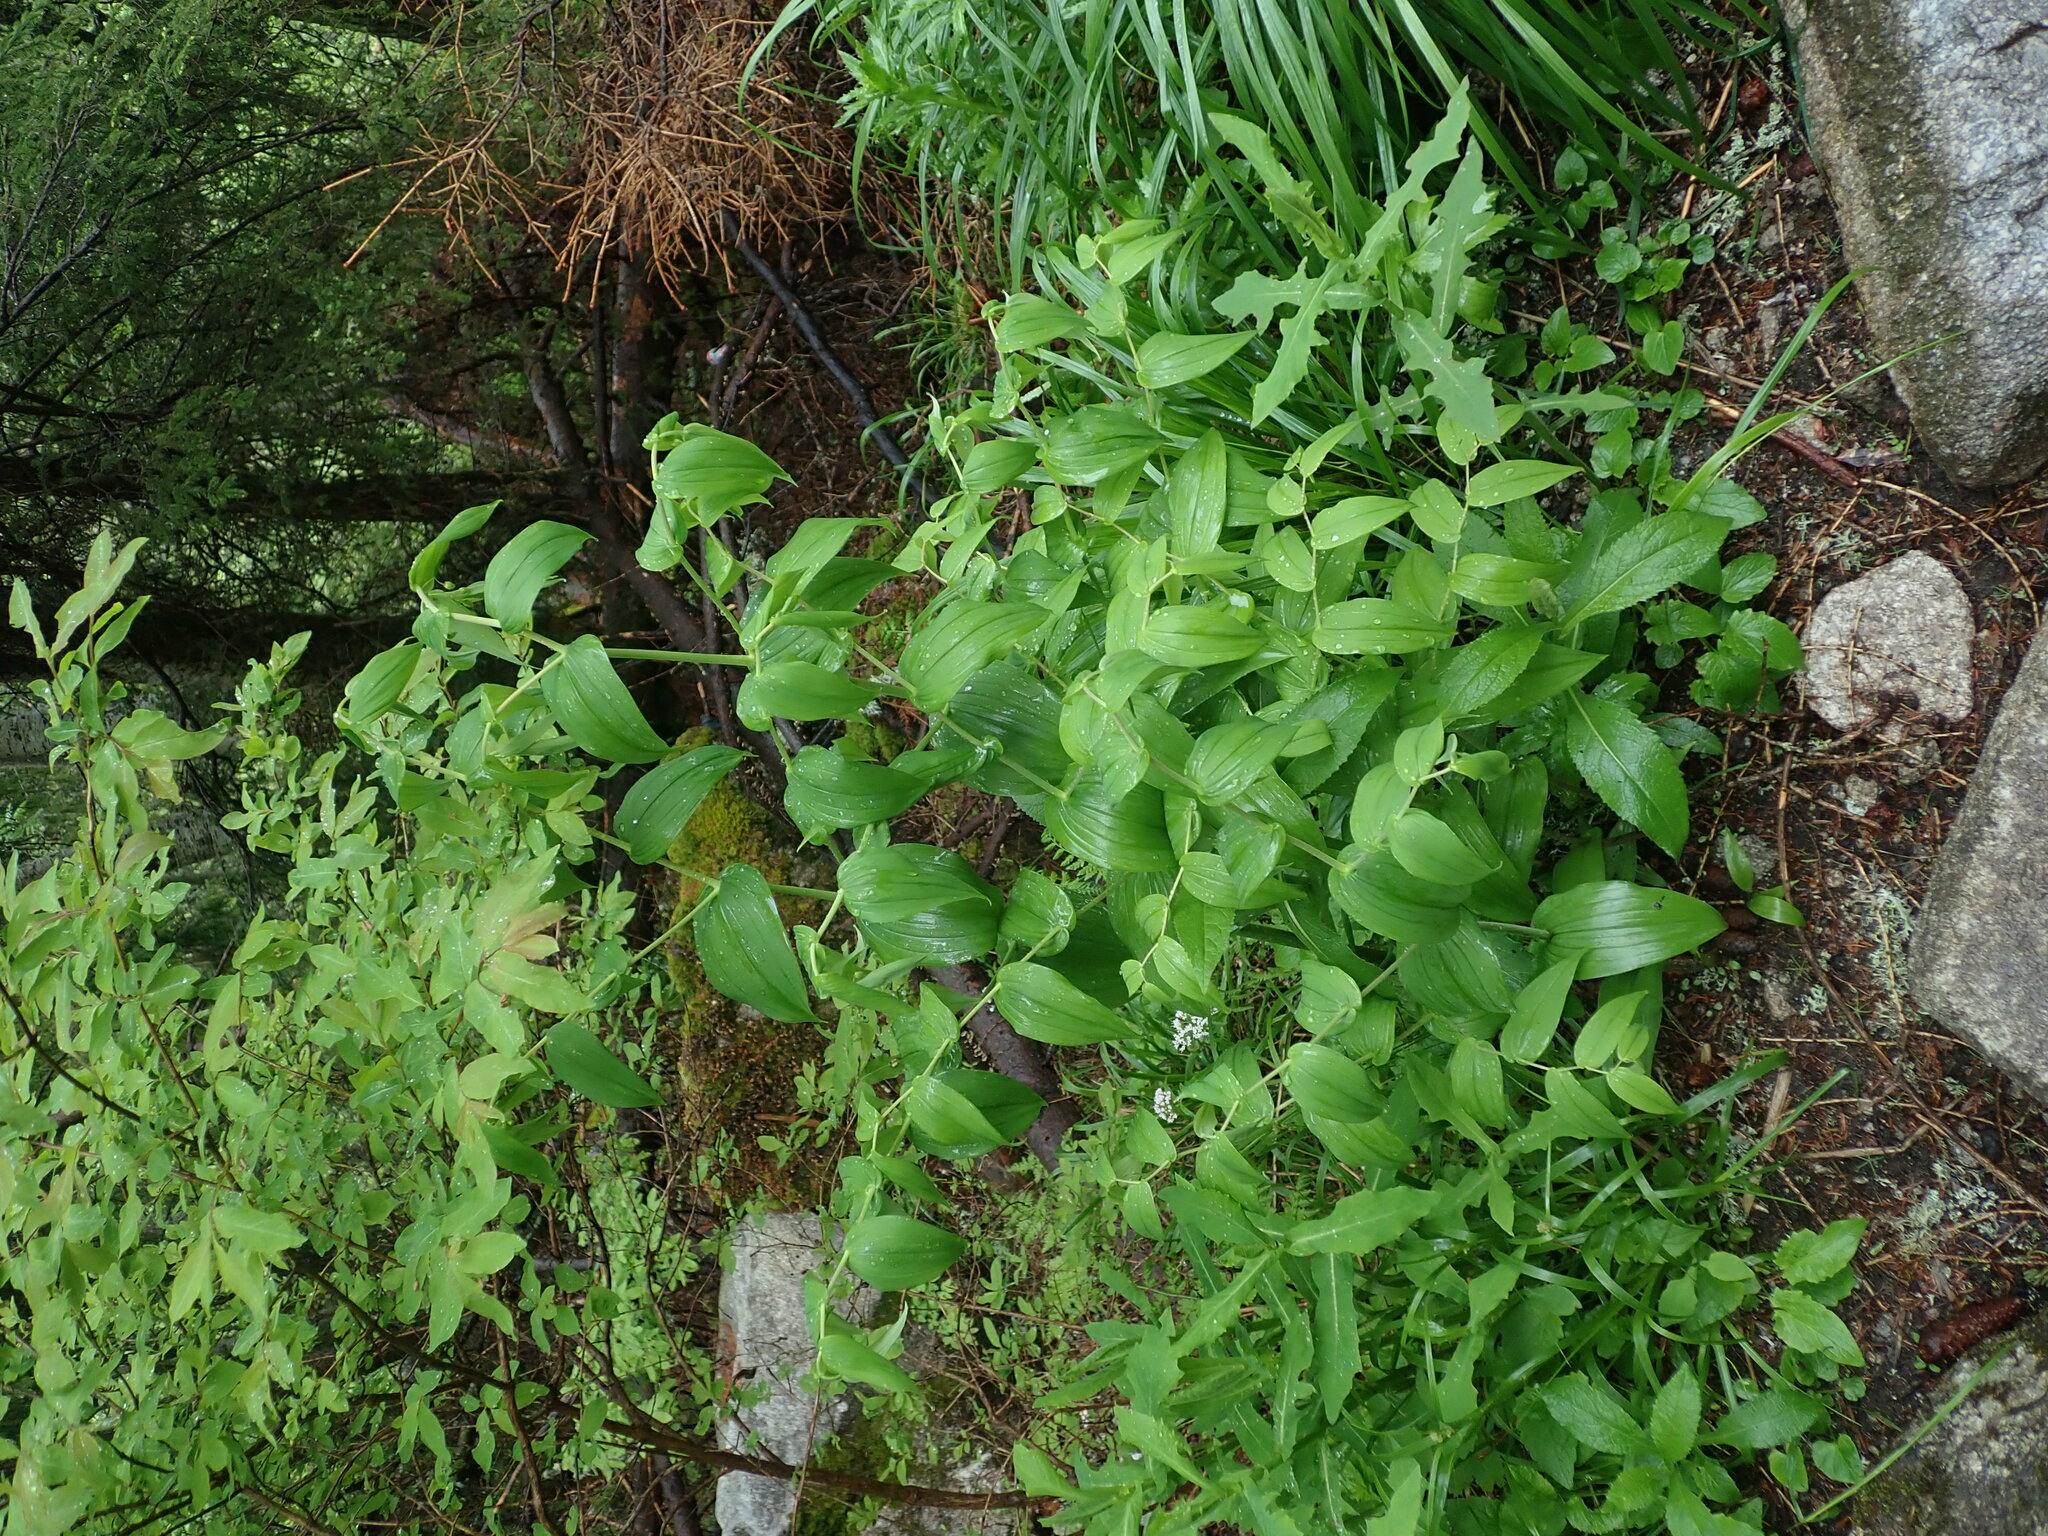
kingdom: Plantae
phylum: Tracheophyta
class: Liliopsida
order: Liliales
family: Liliaceae
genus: Streptopus
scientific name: Streptopus amplexifolius
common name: Clasp twisted stalk
